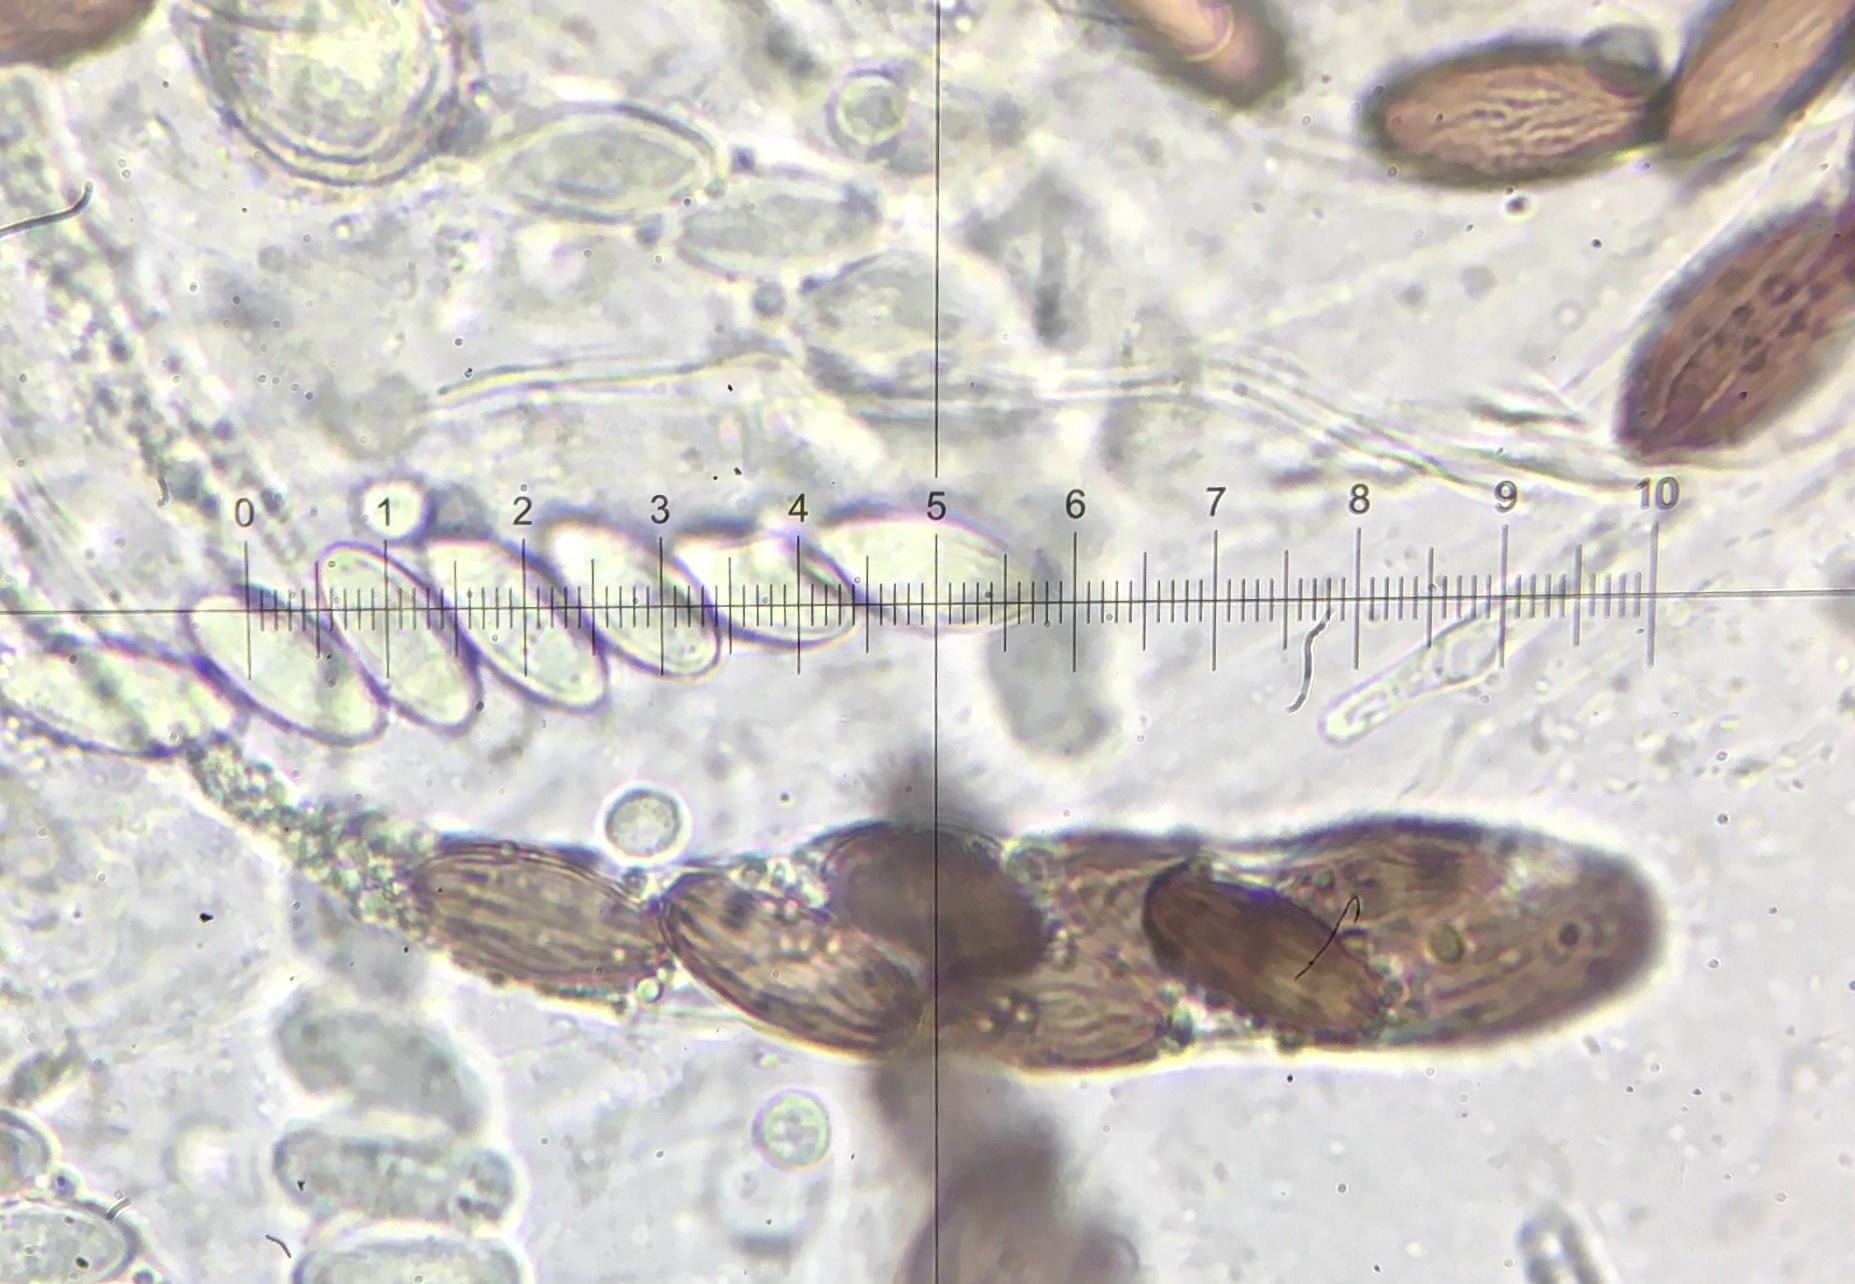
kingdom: Fungi
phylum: Ascomycota
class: Pezizomycetes
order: Pezizales
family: Ascobolaceae
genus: Ascobolus
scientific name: Ascobolus furfuraceus
